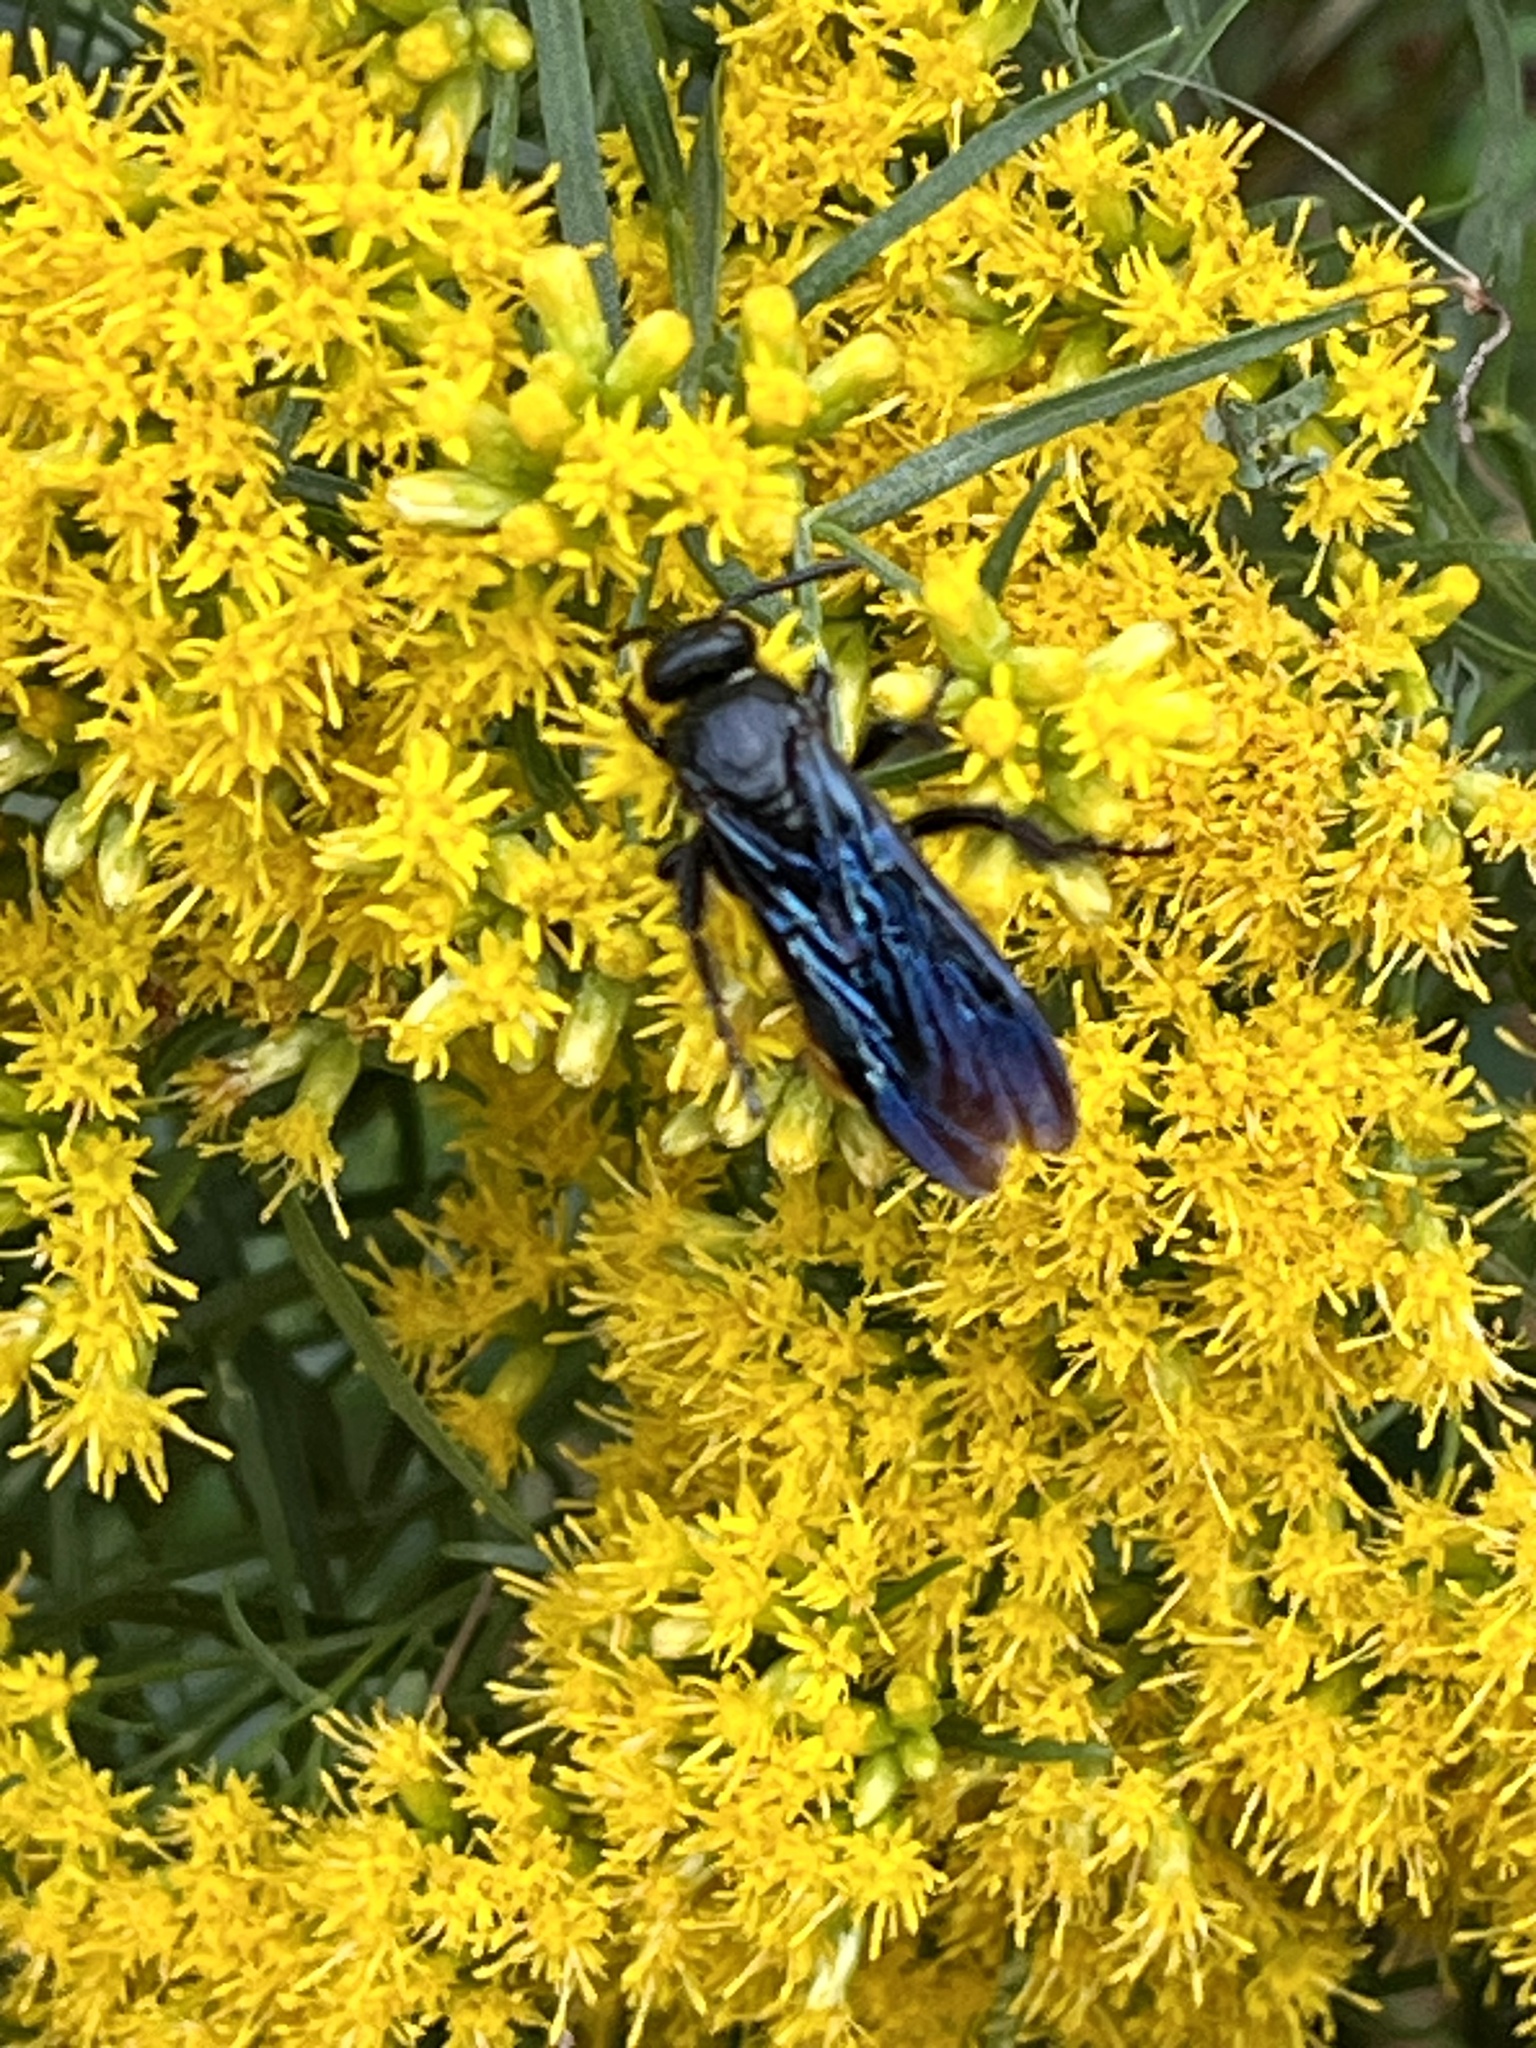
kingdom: Animalia
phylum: Arthropoda
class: Insecta
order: Hymenoptera
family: Scoliidae
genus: Scolia
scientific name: Scolia dubia
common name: Blue-winged scoliid wasp
